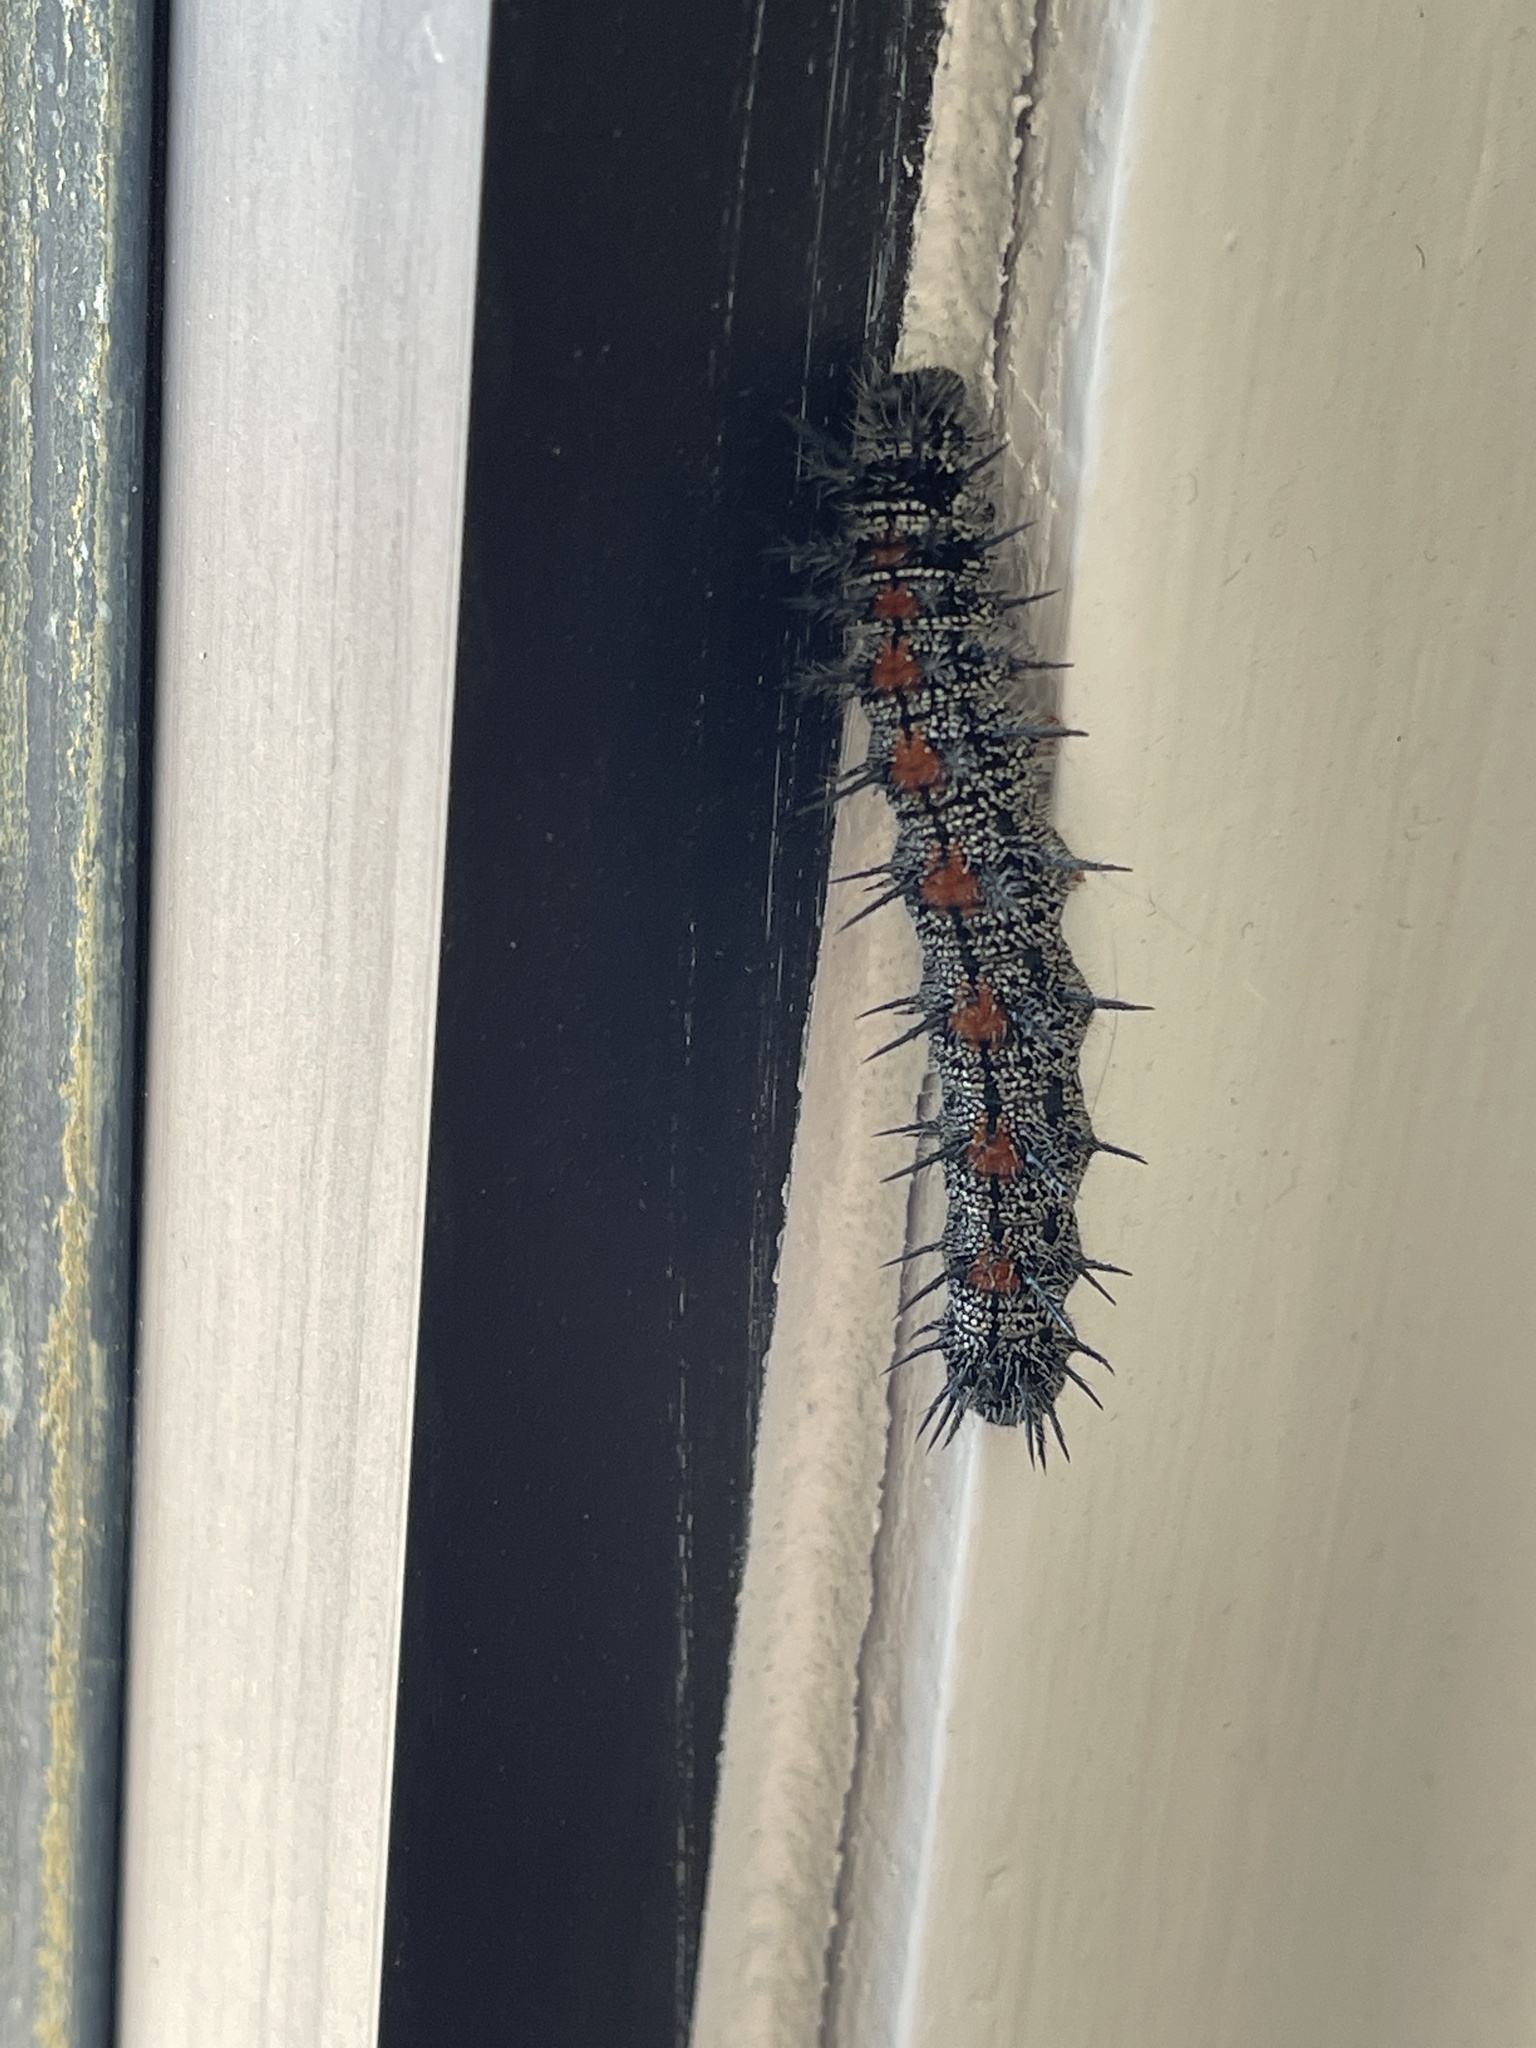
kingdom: Animalia
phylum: Arthropoda
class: Insecta
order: Lepidoptera
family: Nymphalidae
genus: Nymphalis
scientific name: Nymphalis antiopa
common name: Camberwell beauty
